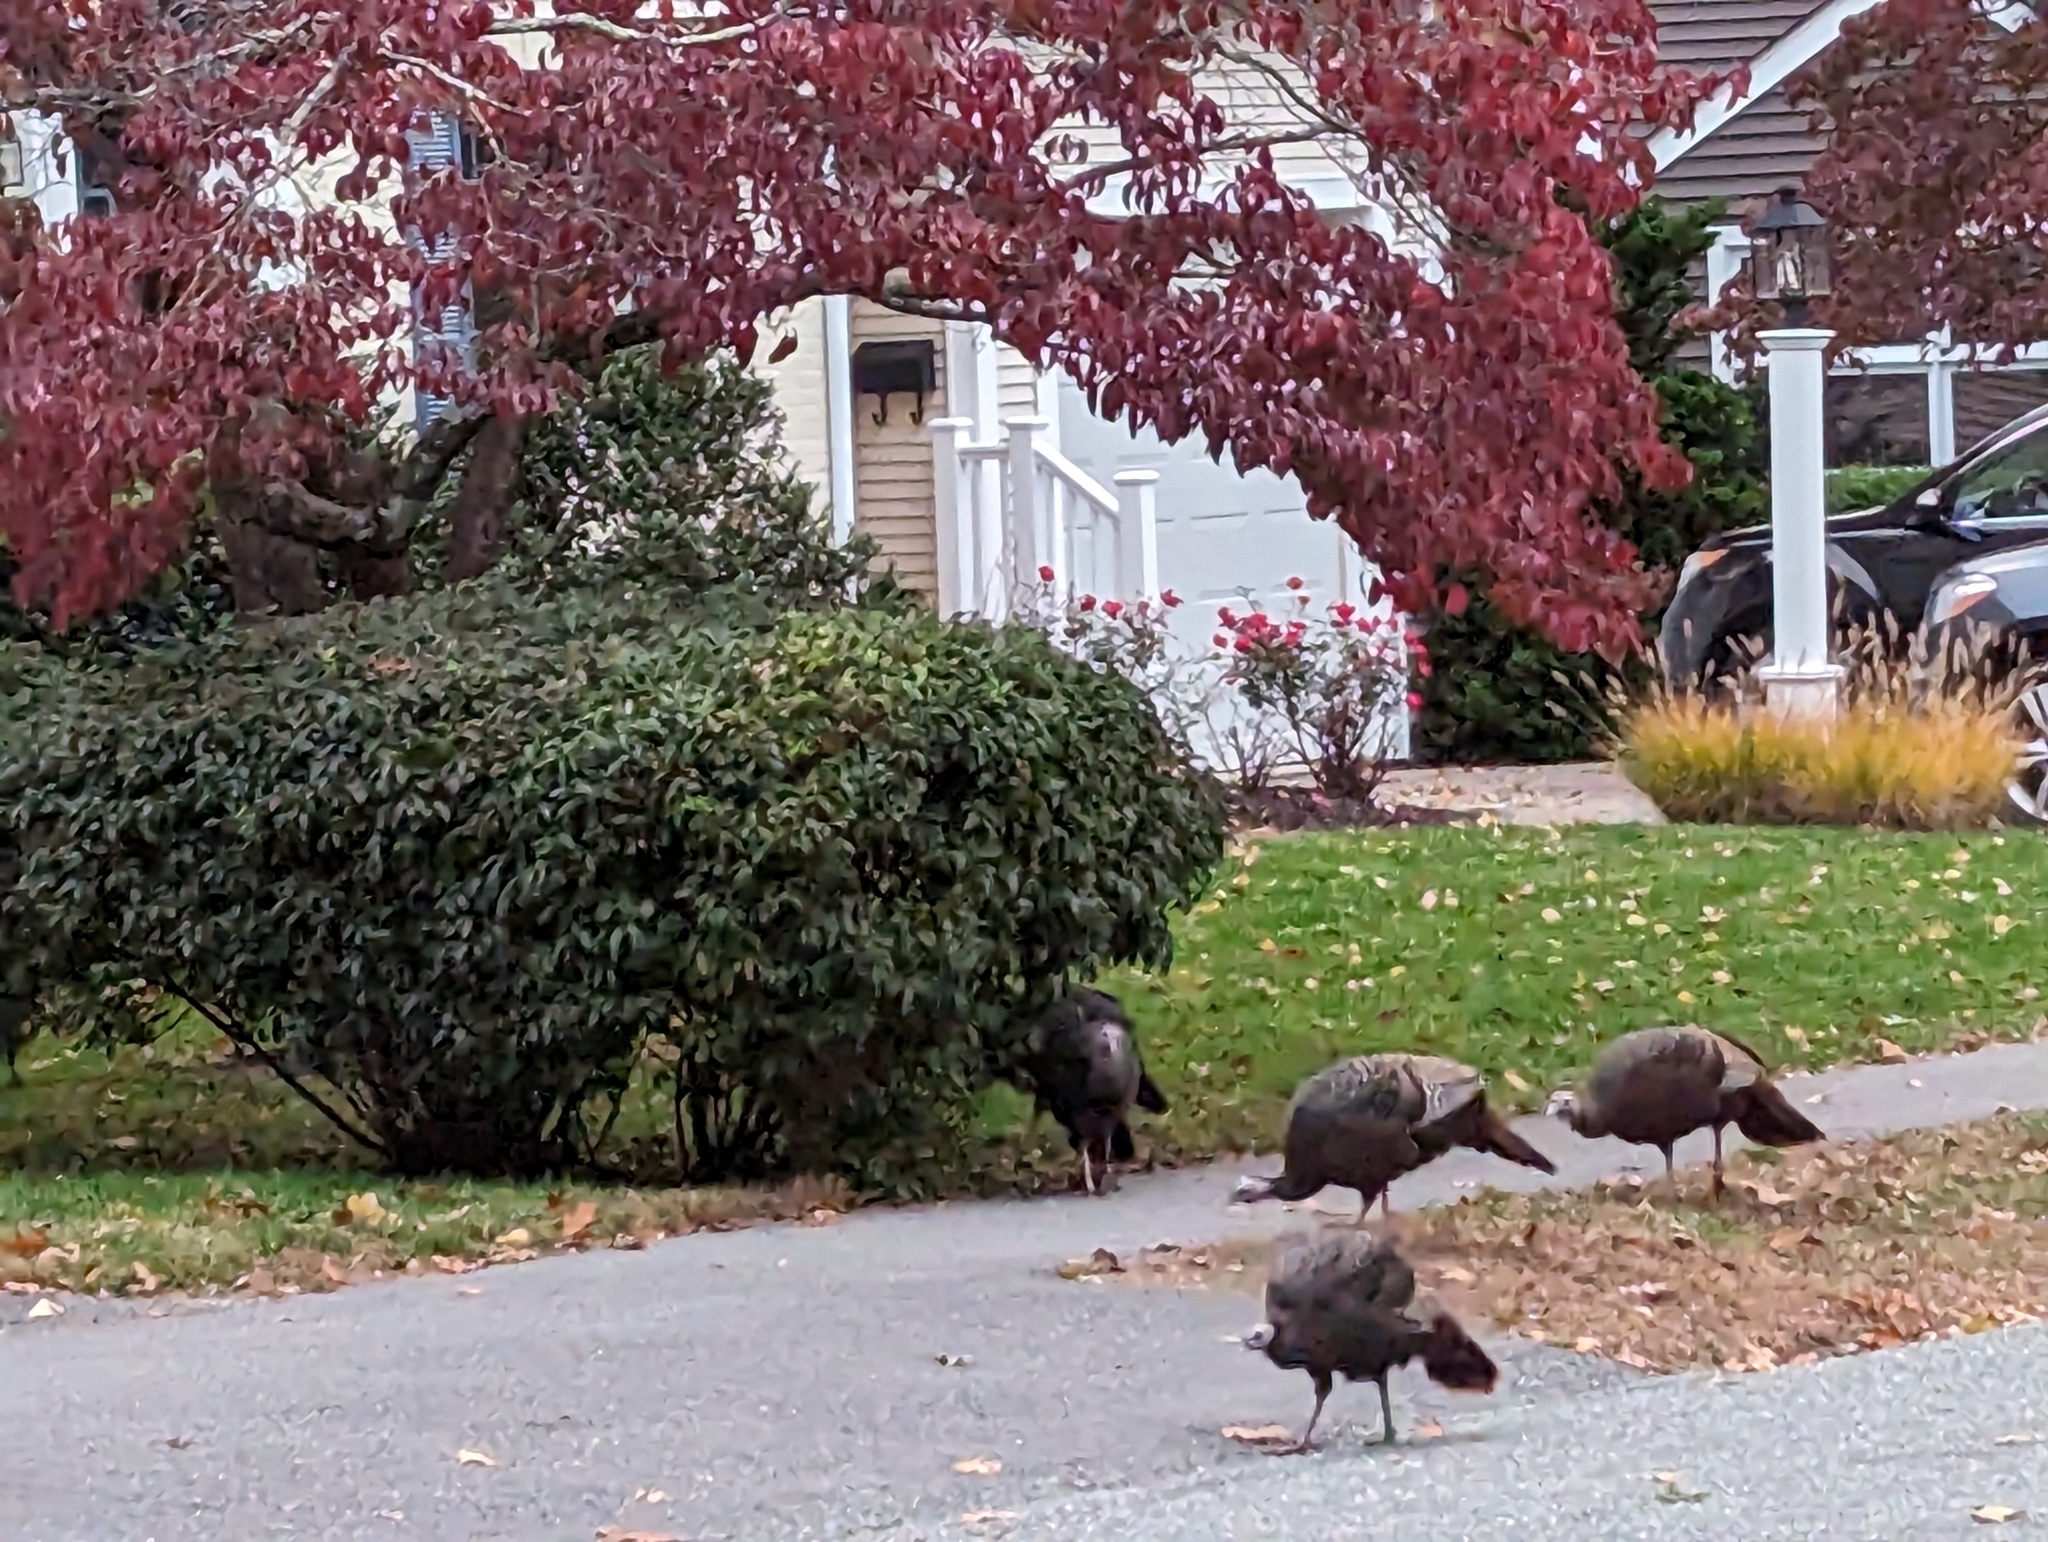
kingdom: Animalia
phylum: Chordata
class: Aves
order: Galliformes
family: Phasianidae
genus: Meleagris
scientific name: Meleagris gallopavo
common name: Wild turkey
